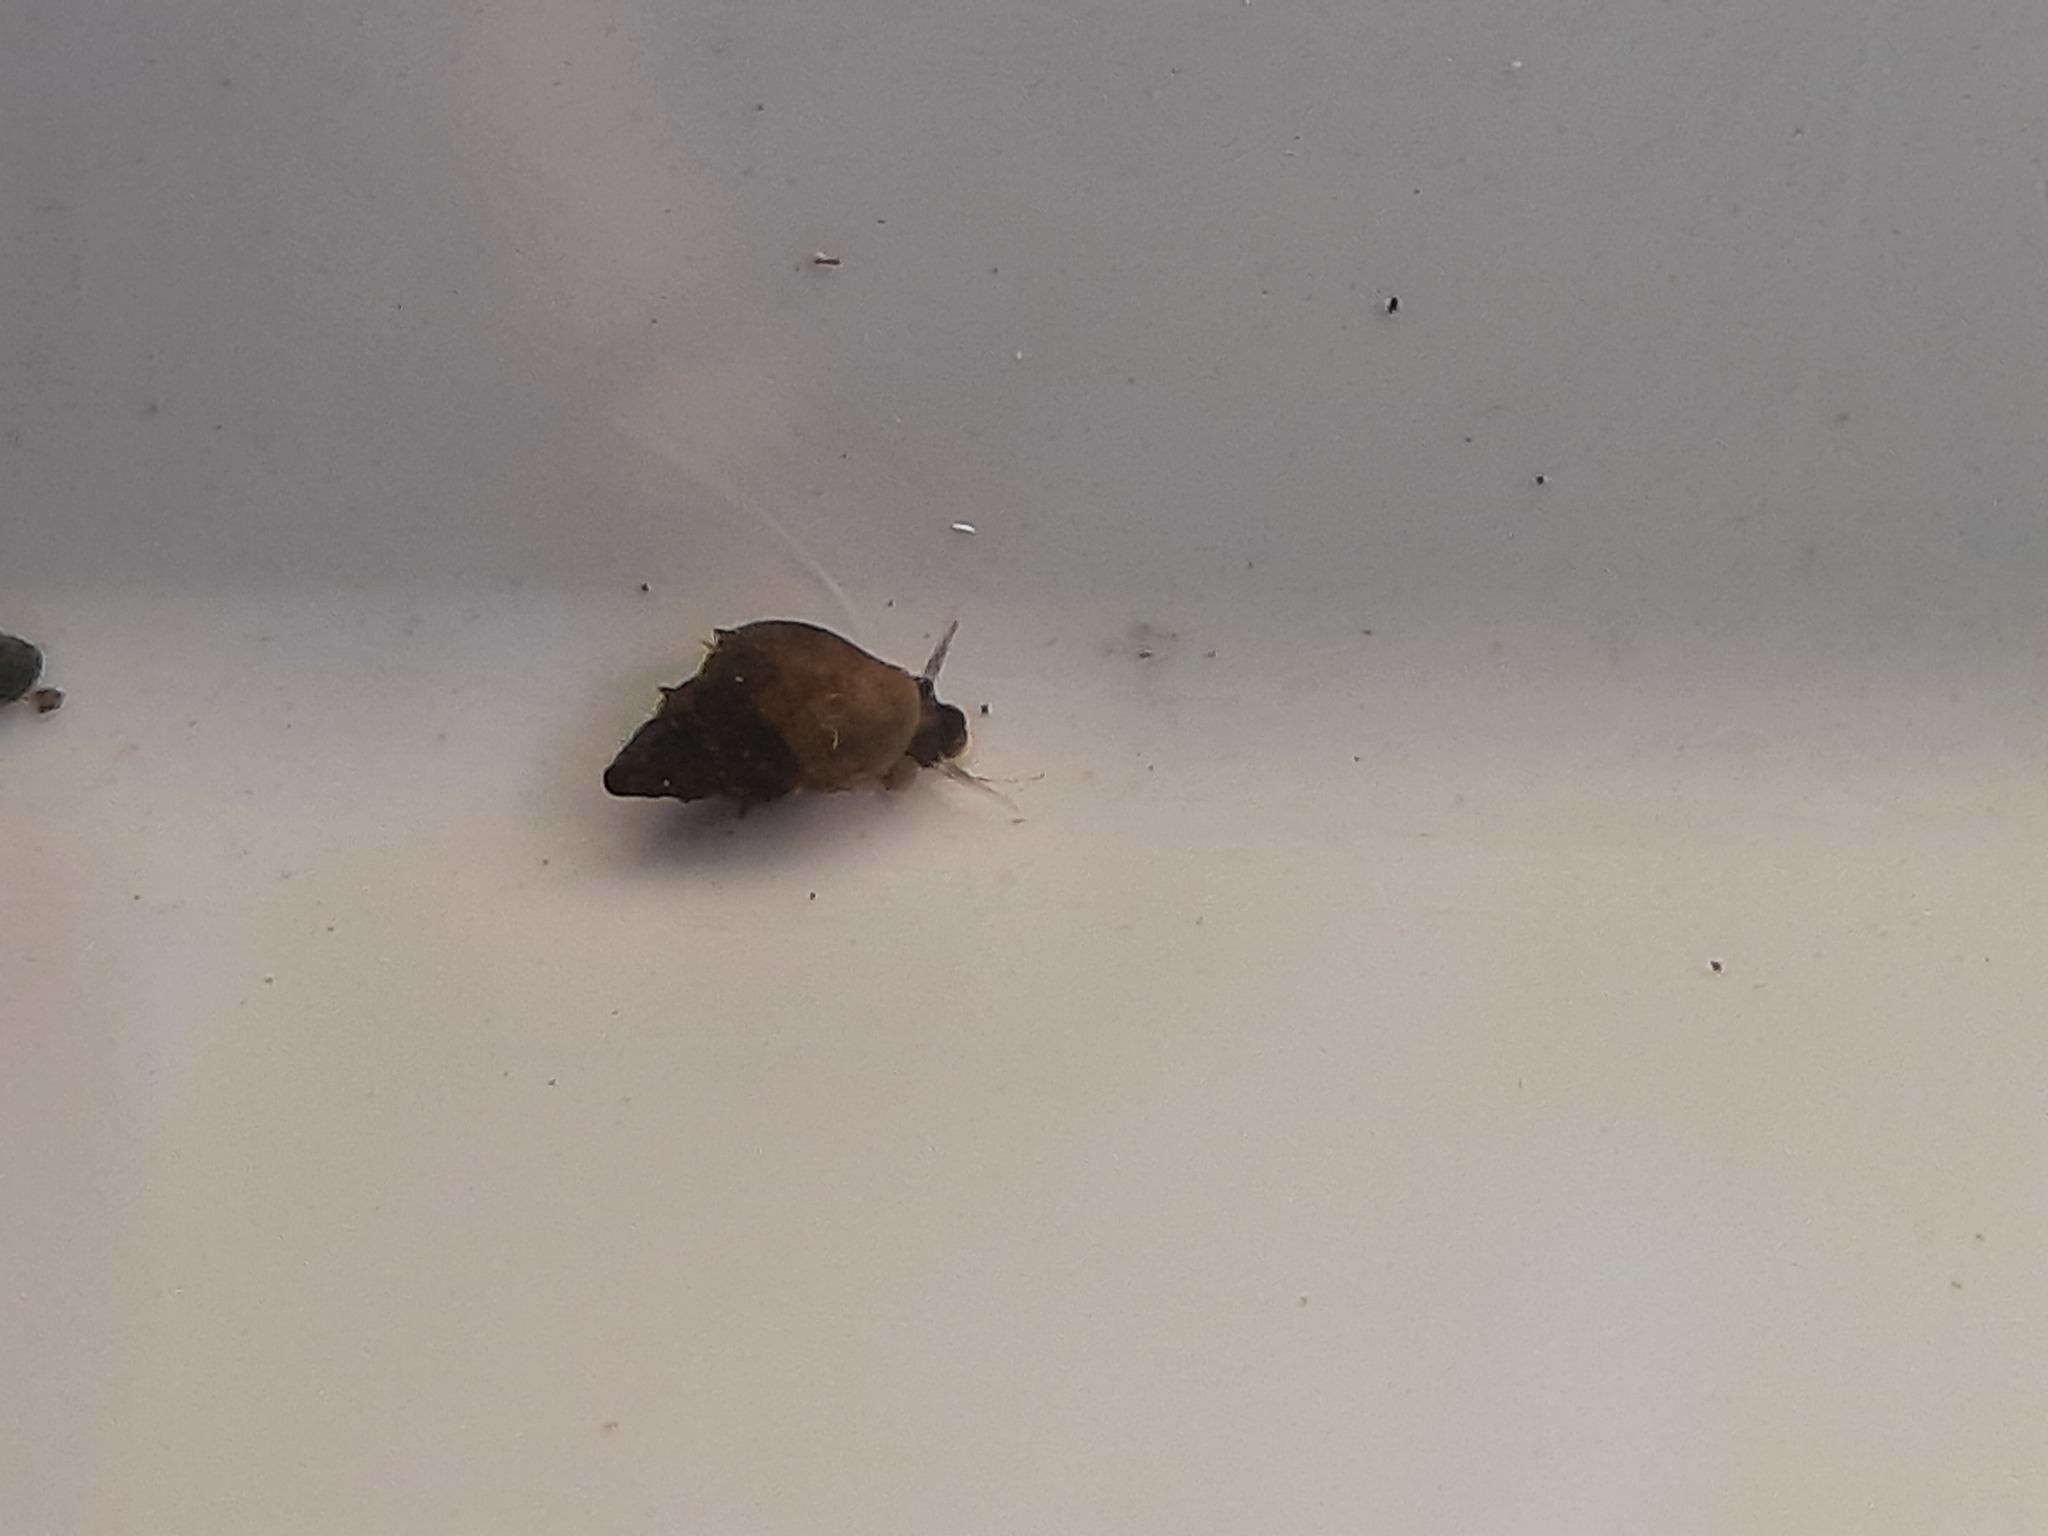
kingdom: Animalia
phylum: Mollusca
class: Gastropoda
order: Littorinimorpha
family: Tateidae
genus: Potamopyrgus
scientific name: Potamopyrgus antipodarum
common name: Jenkins' spire snail
